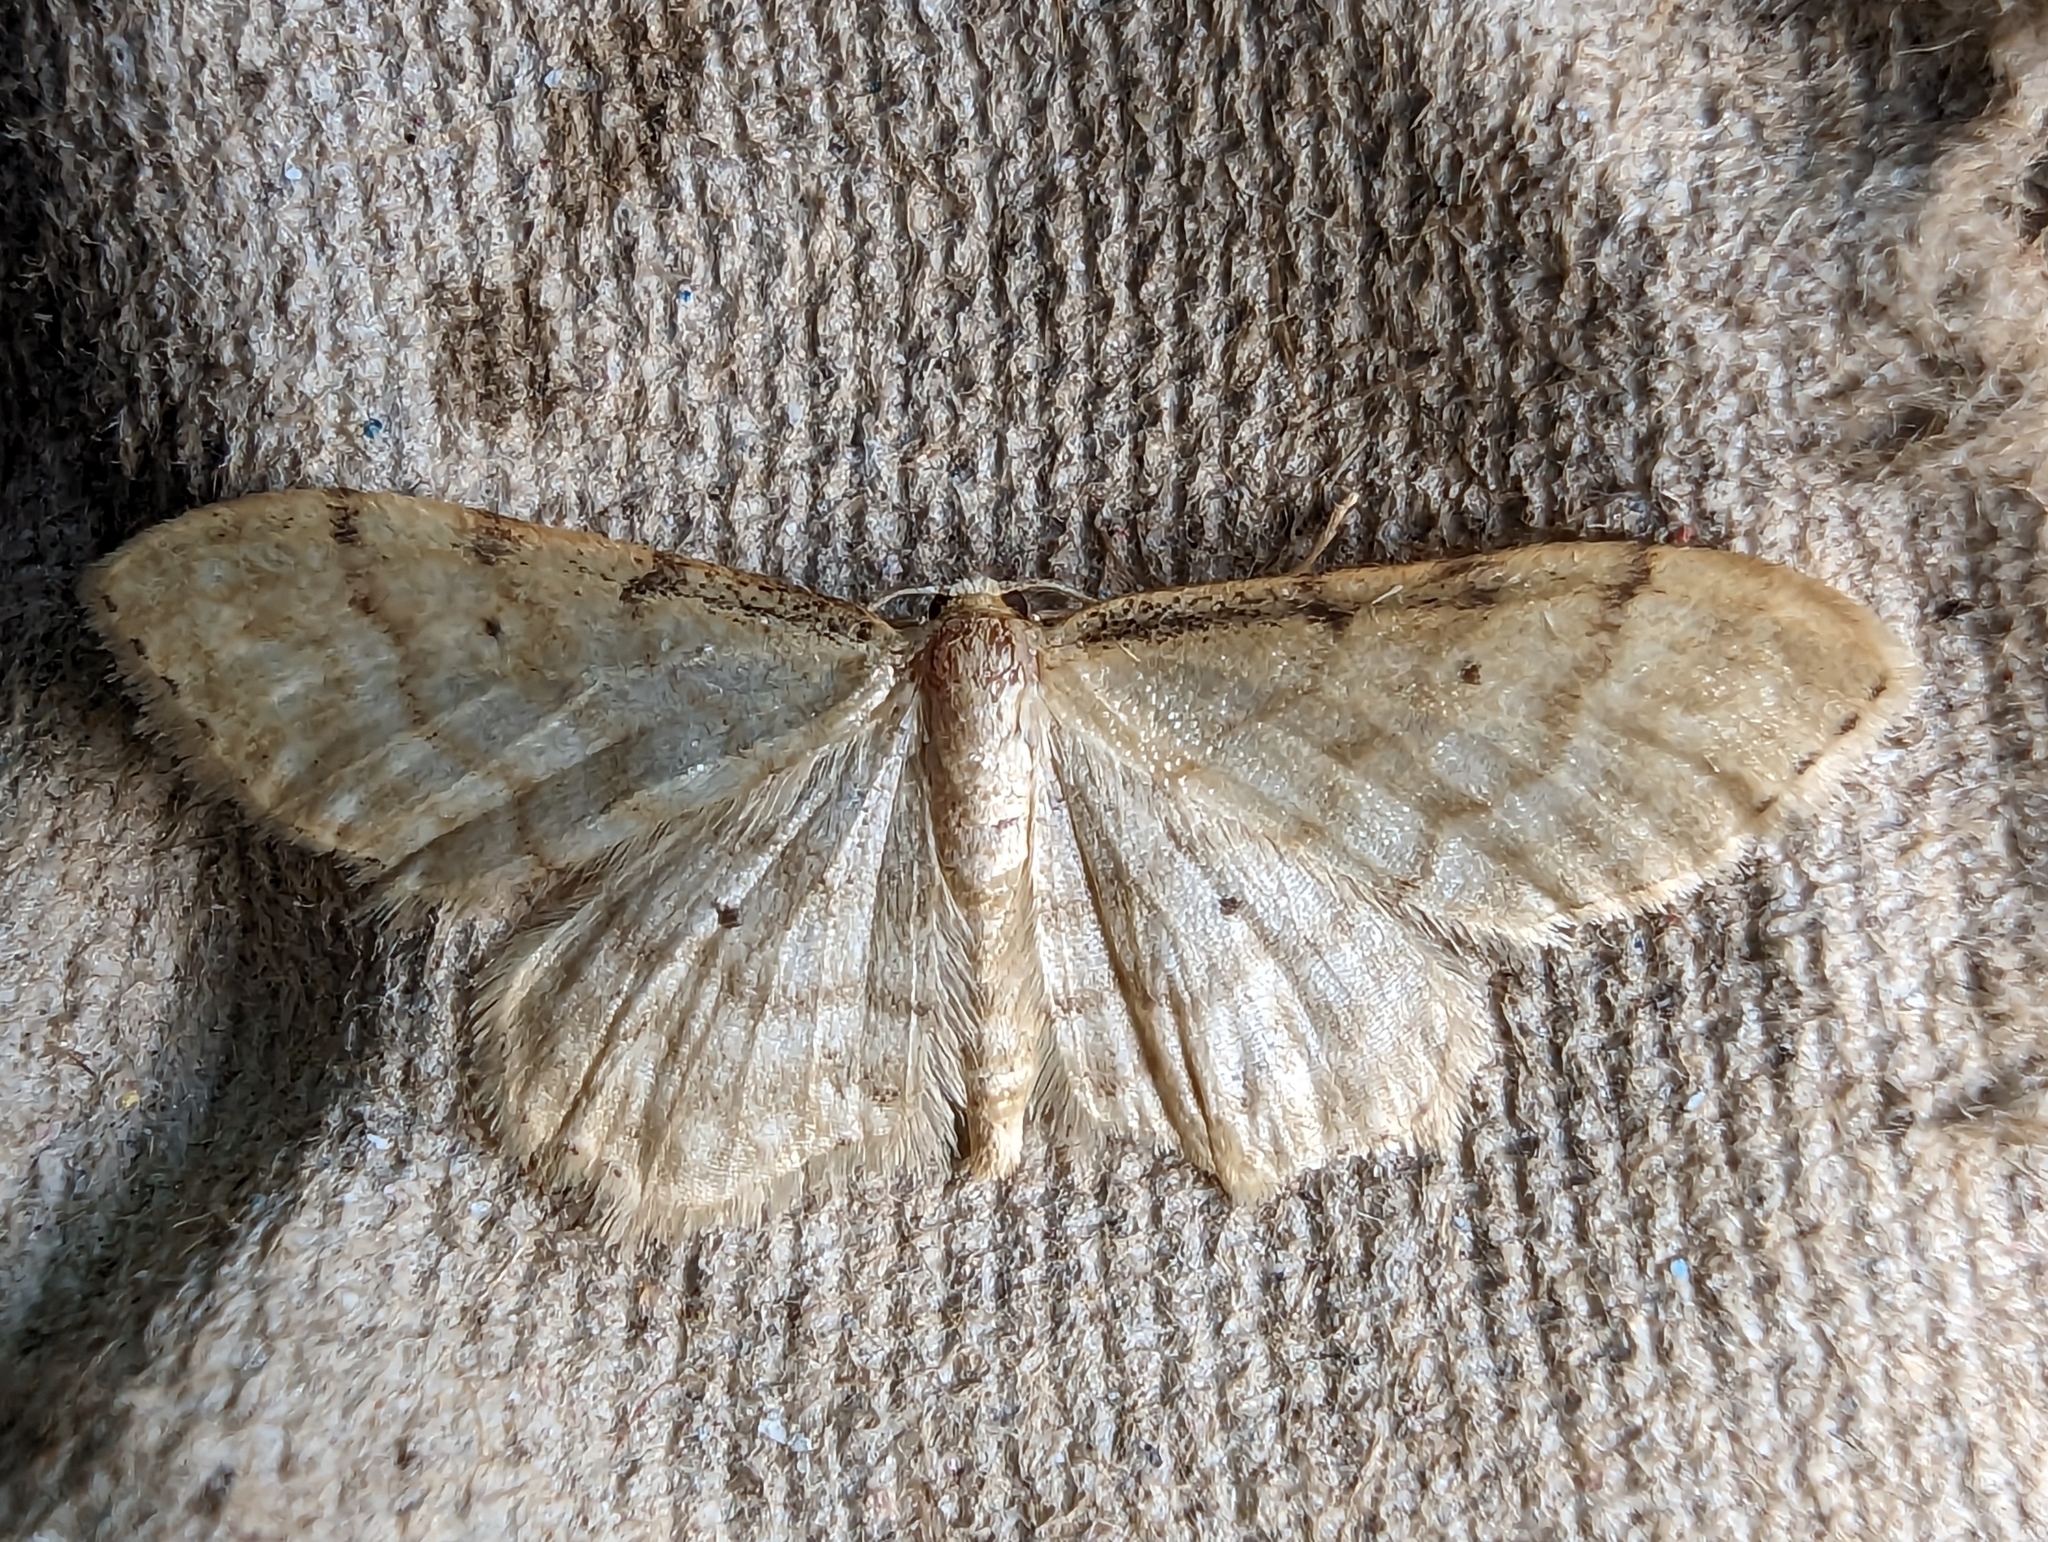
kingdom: Animalia
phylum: Arthropoda
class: Insecta
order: Lepidoptera
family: Geometridae
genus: Idaea
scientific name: Idaea fuscovenosa
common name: Dwarf cream wave
